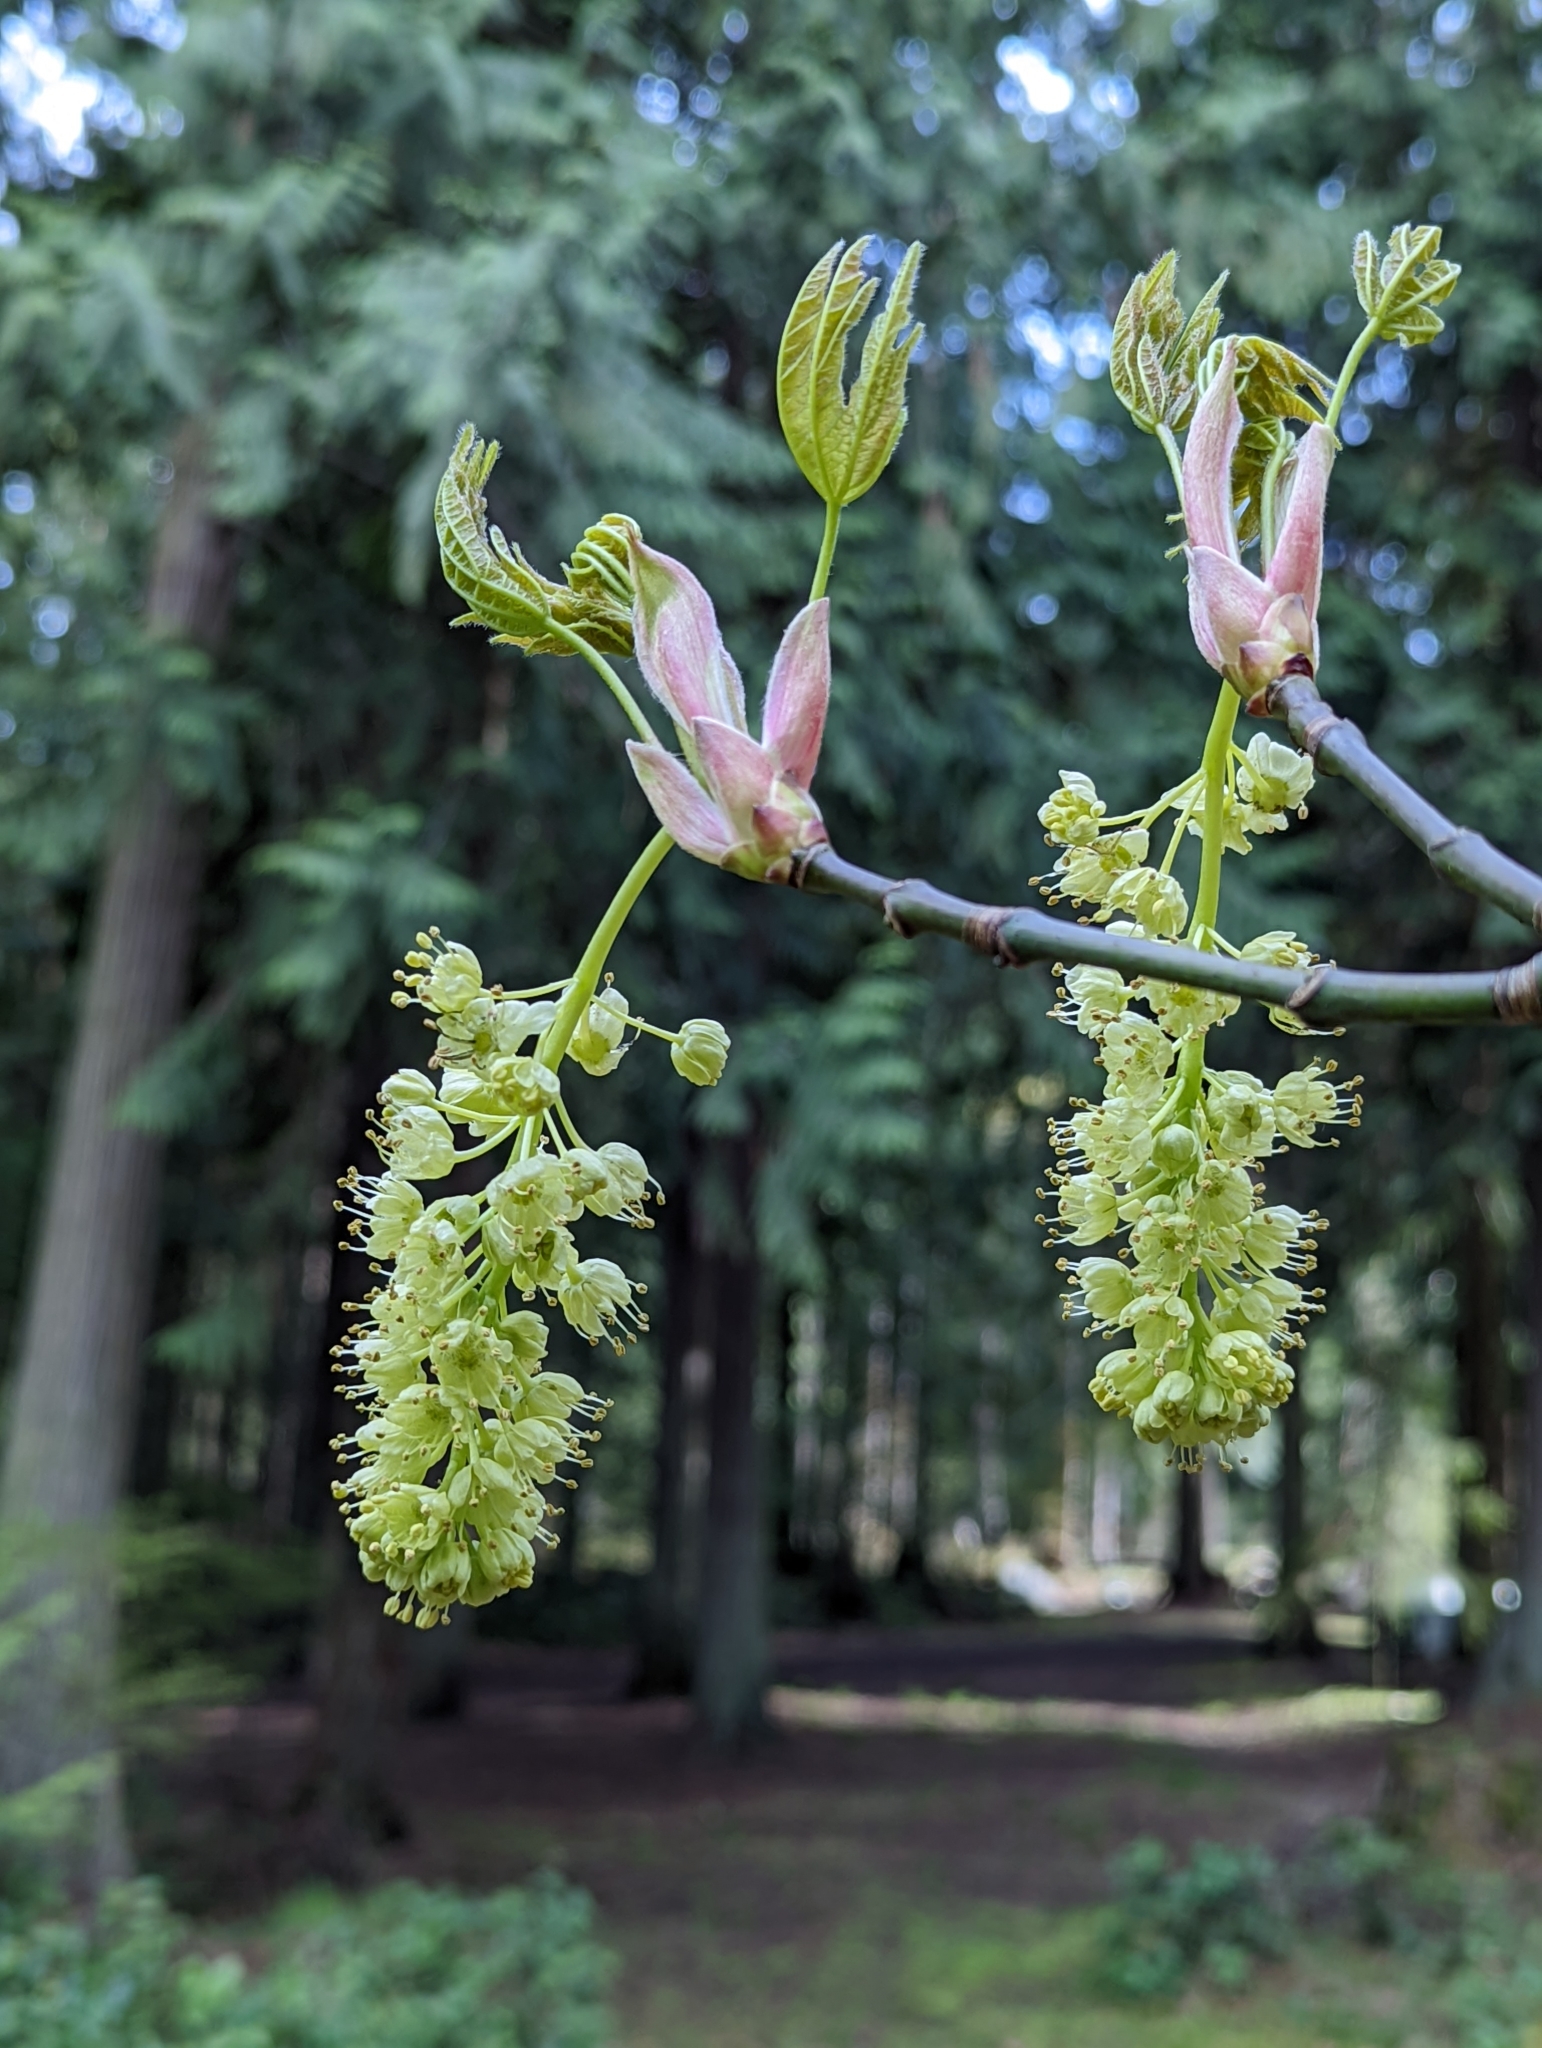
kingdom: Plantae
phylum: Tracheophyta
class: Magnoliopsida
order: Sapindales
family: Sapindaceae
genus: Acer
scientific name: Acer macrophyllum
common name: Oregon maple
